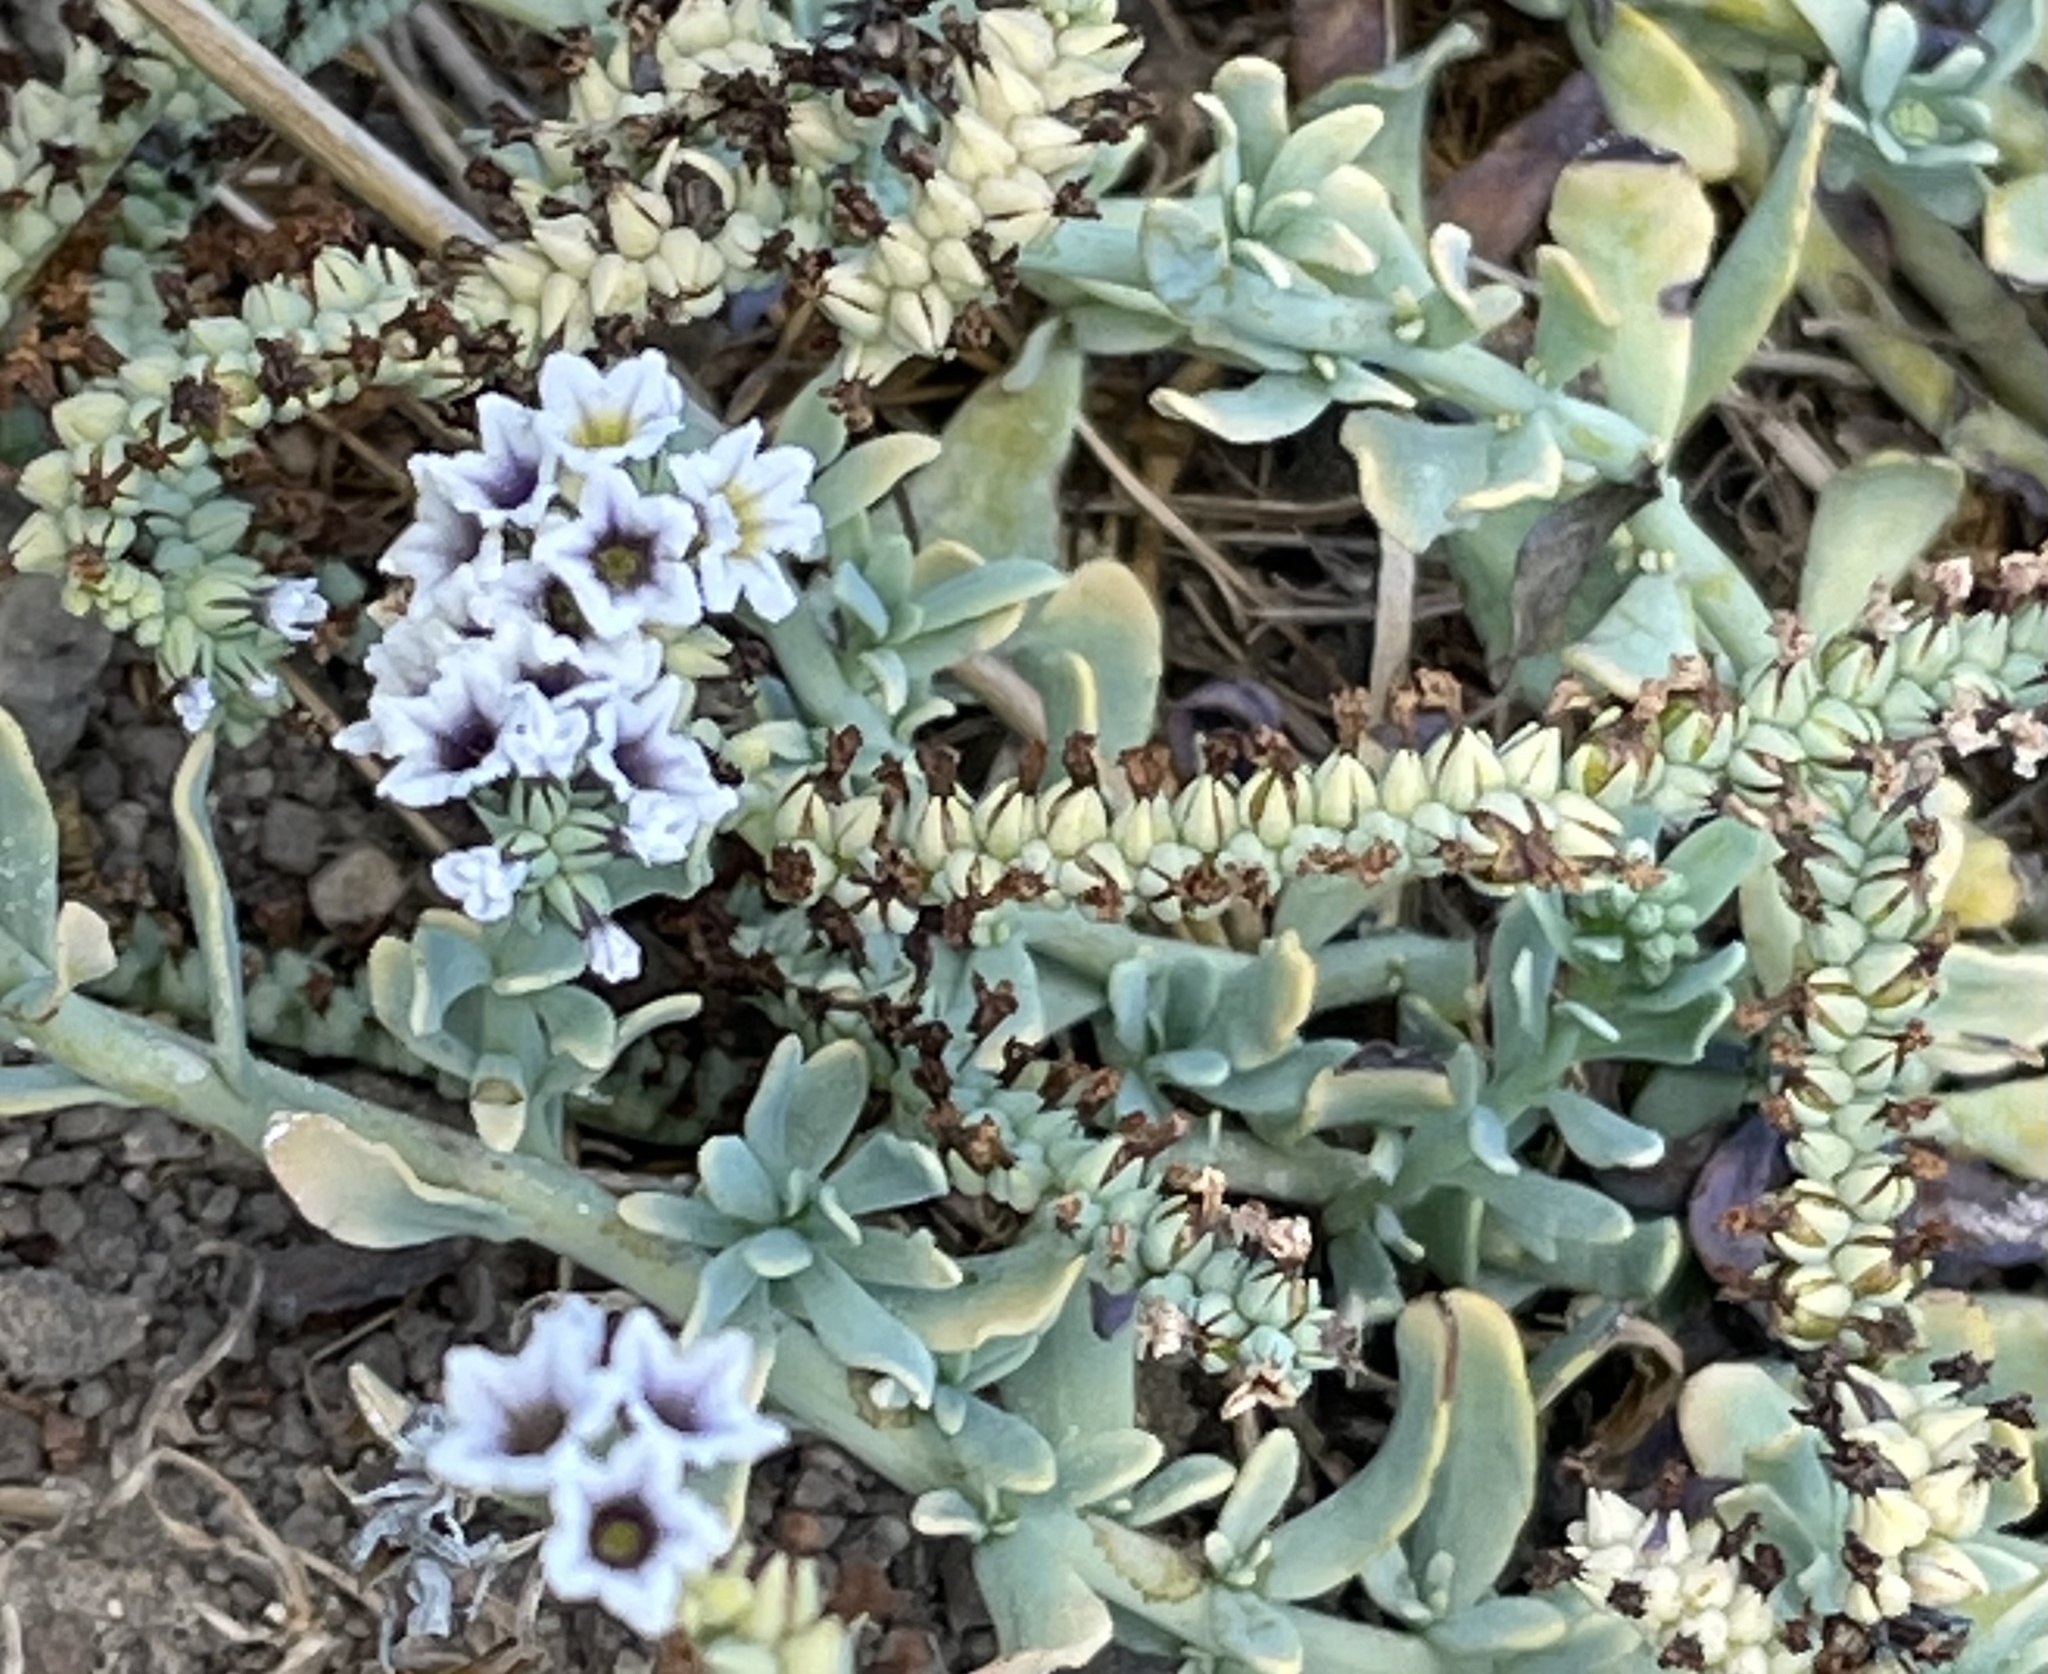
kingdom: Plantae
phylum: Tracheophyta
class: Magnoliopsida
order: Boraginales
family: Heliotropiaceae
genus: Heliotropium
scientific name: Heliotropium curassavicum
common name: Seaside heliotrope
